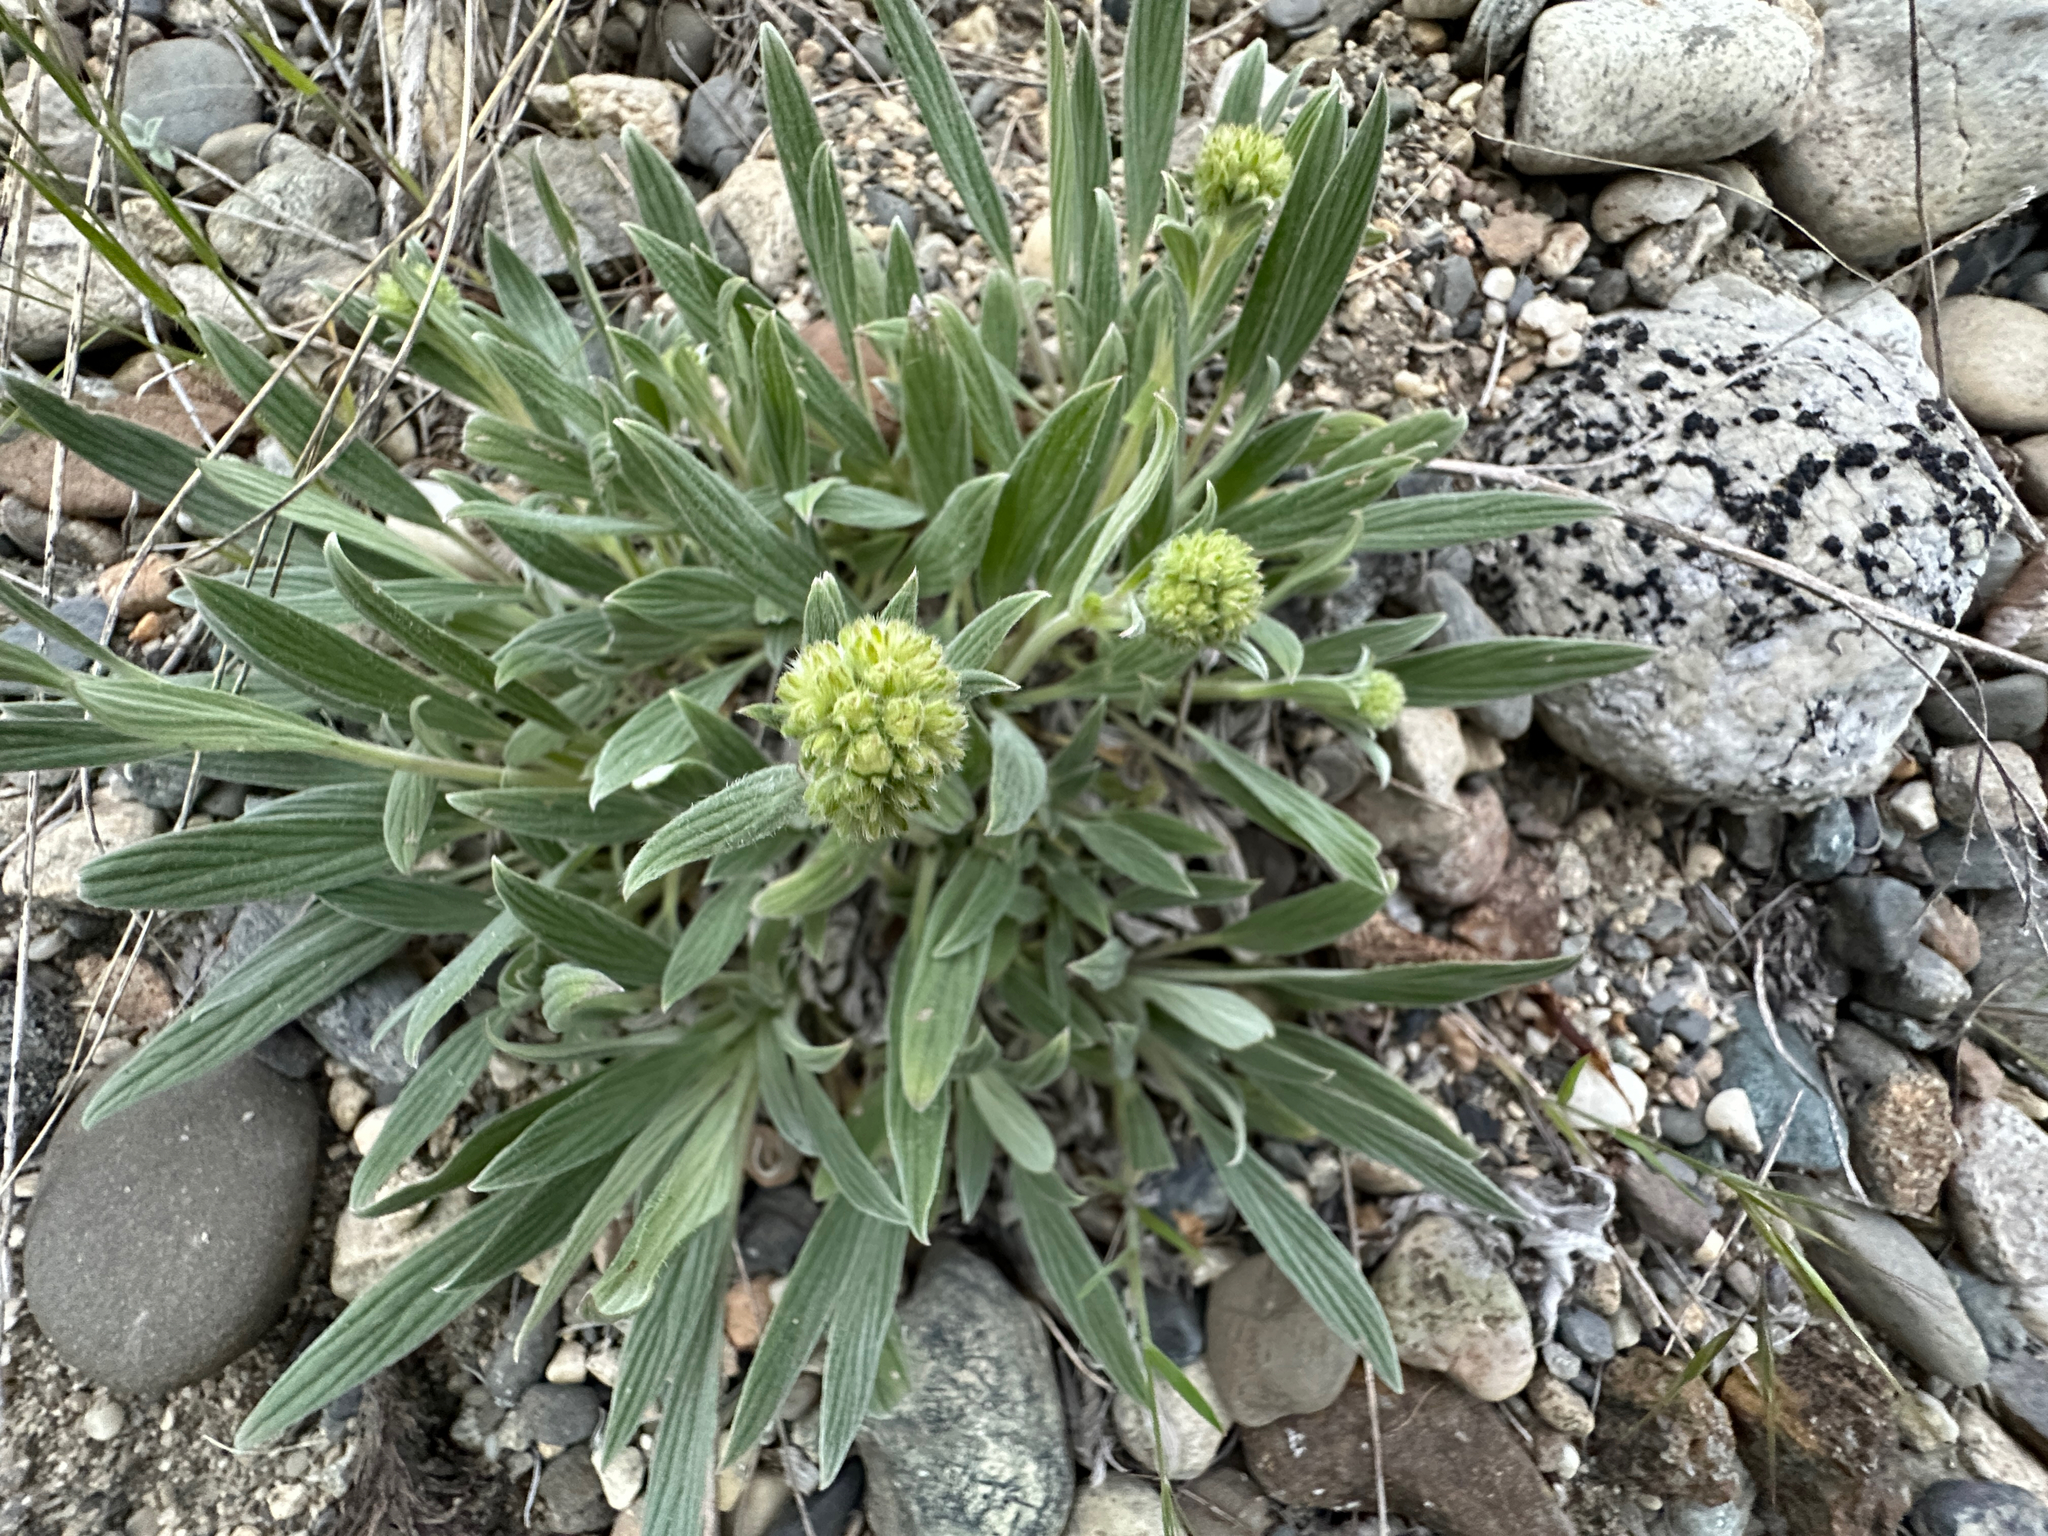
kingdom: Plantae
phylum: Tracheophyta
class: Magnoliopsida
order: Boraginales
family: Hydrophyllaceae
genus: Phacelia
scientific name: Phacelia hastata
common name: Silver-leaved phacelia
